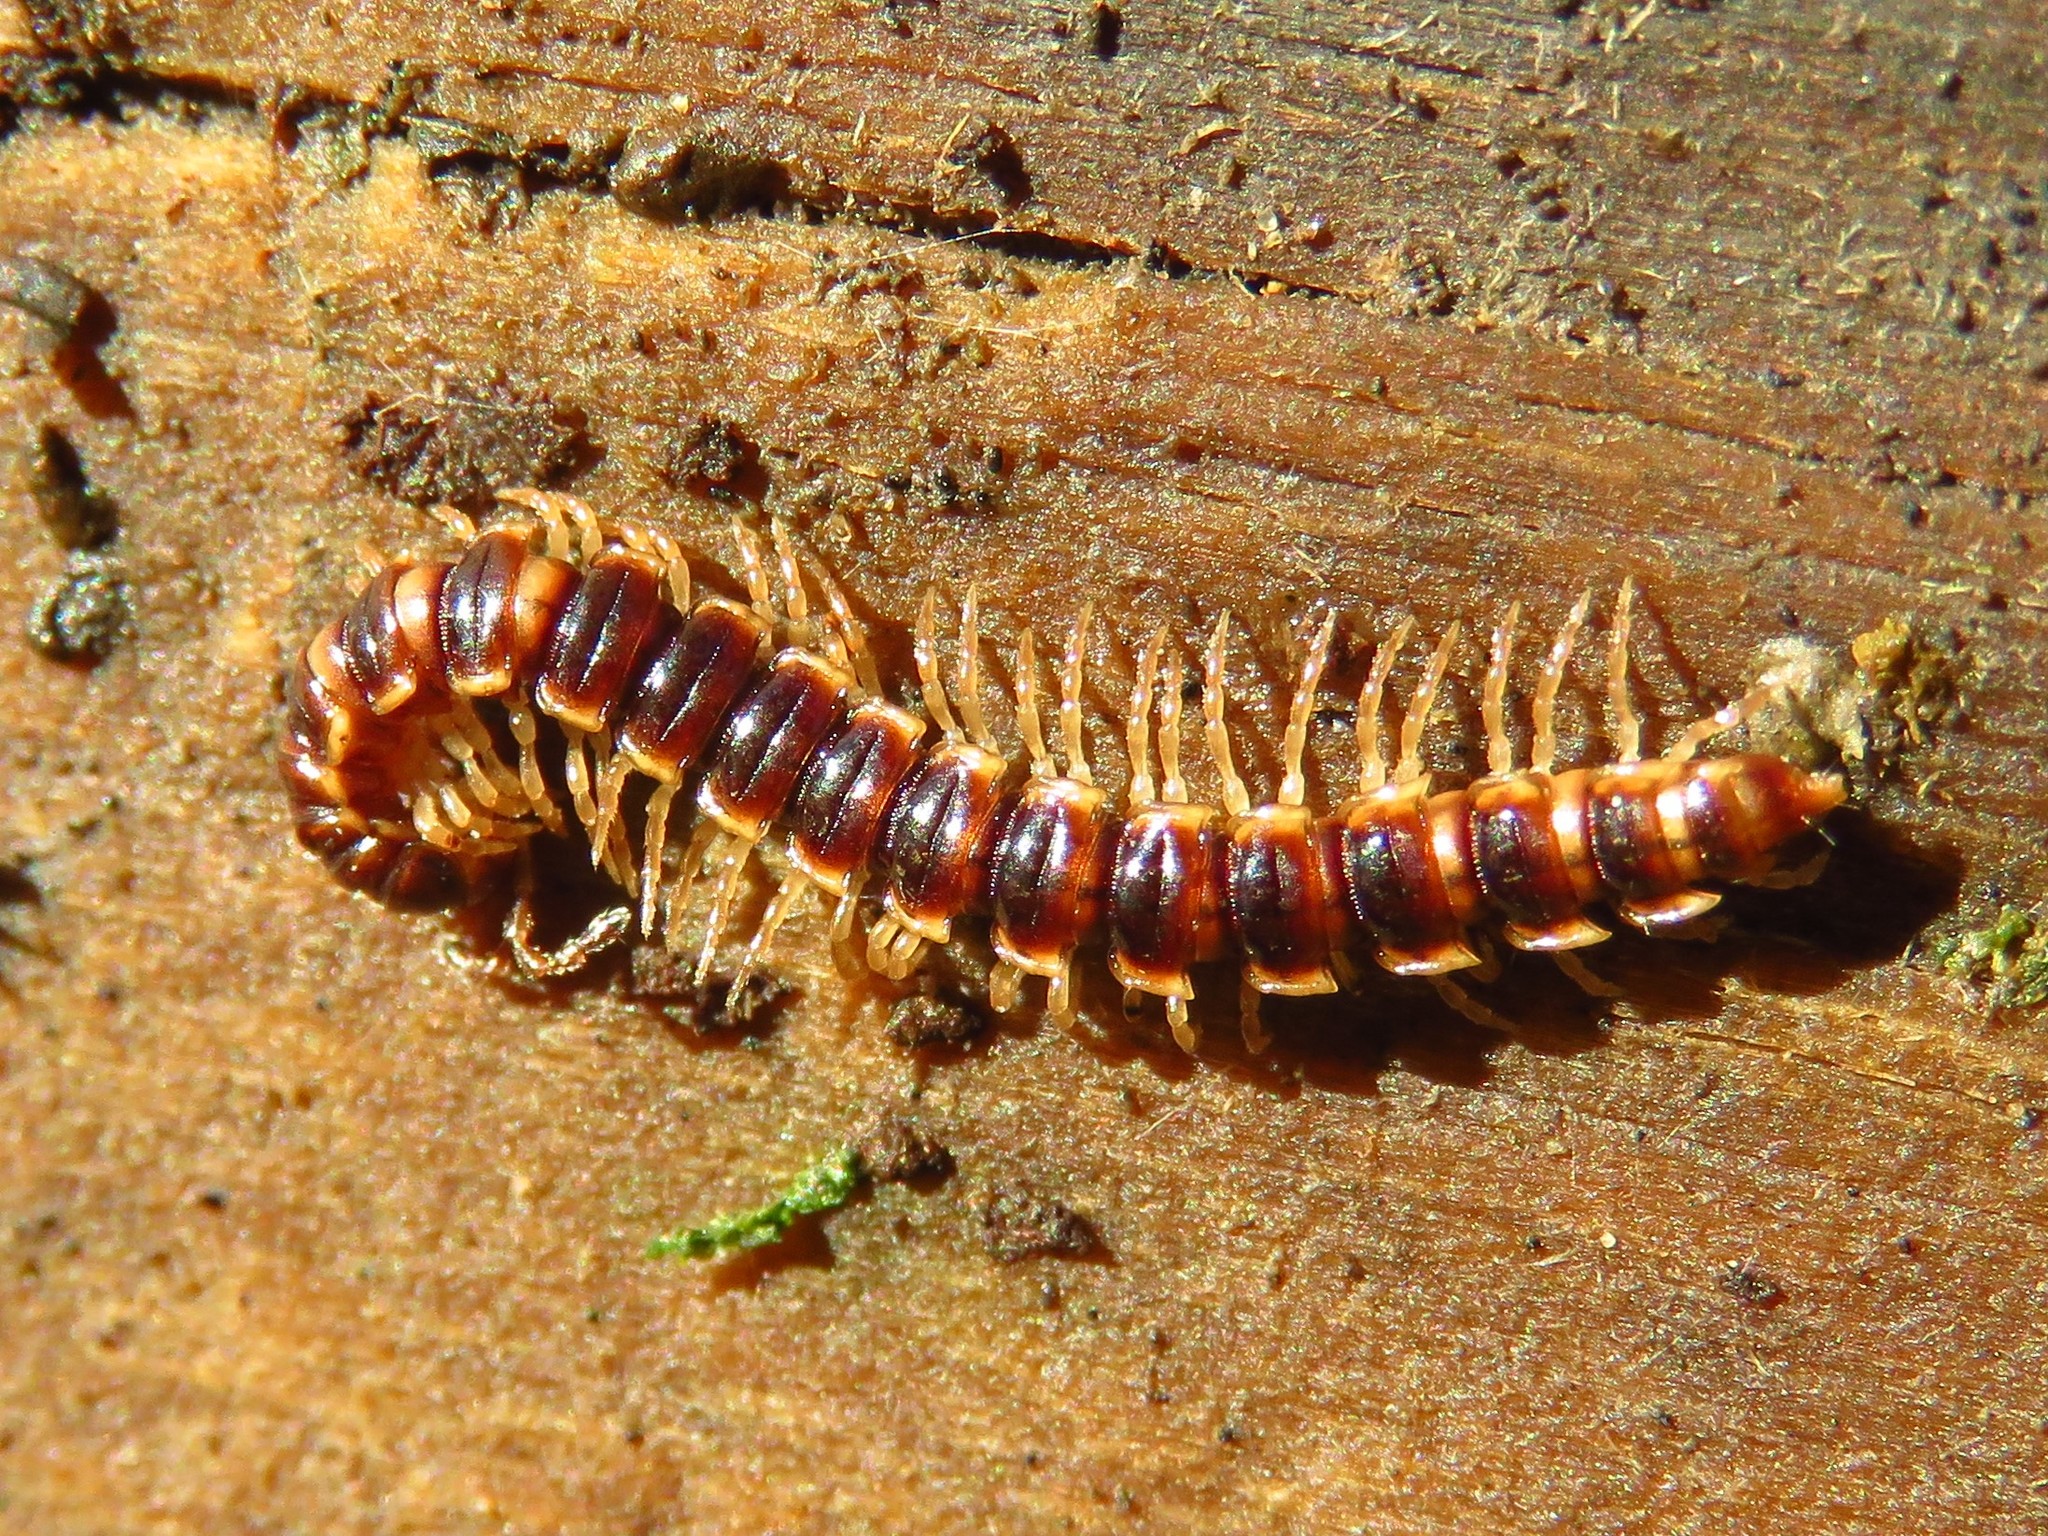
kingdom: Animalia
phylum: Arthropoda
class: Diplopoda
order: Polydesmida
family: Paradoxosomatidae
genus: Oxidus
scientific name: Oxidus gracilis
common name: Greenhouse millipede
